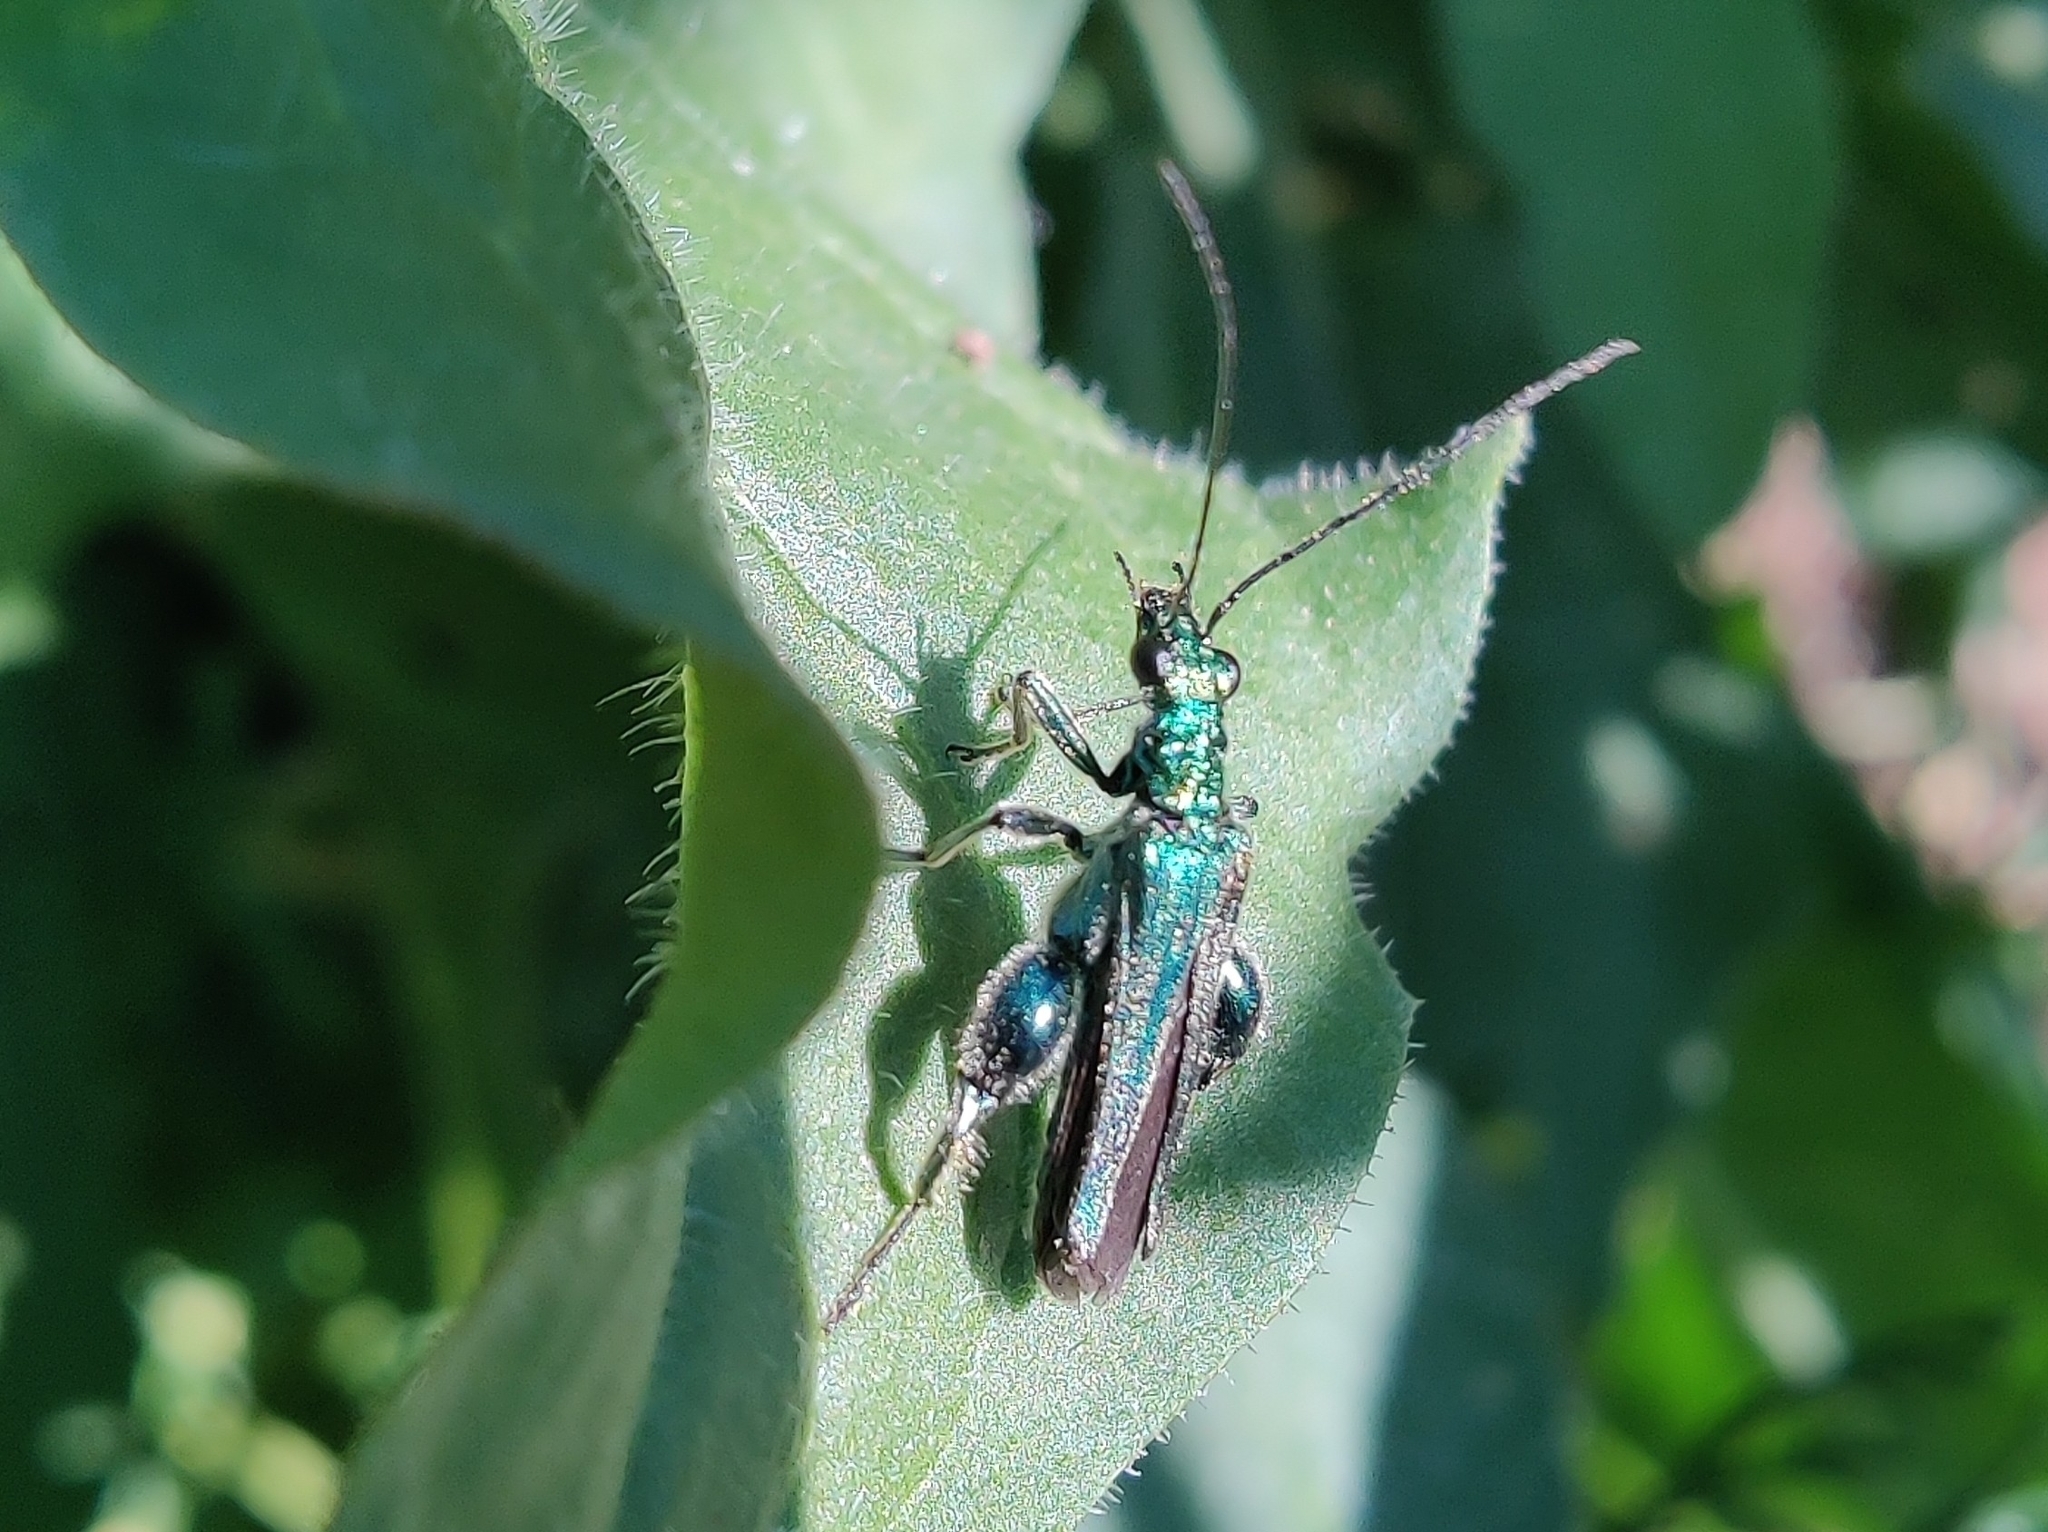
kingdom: Animalia
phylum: Arthropoda
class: Insecta
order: Coleoptera
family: Oedemeridae
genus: Oedemera
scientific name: Oedemera nobilis
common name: Swollen-thighed beetle
